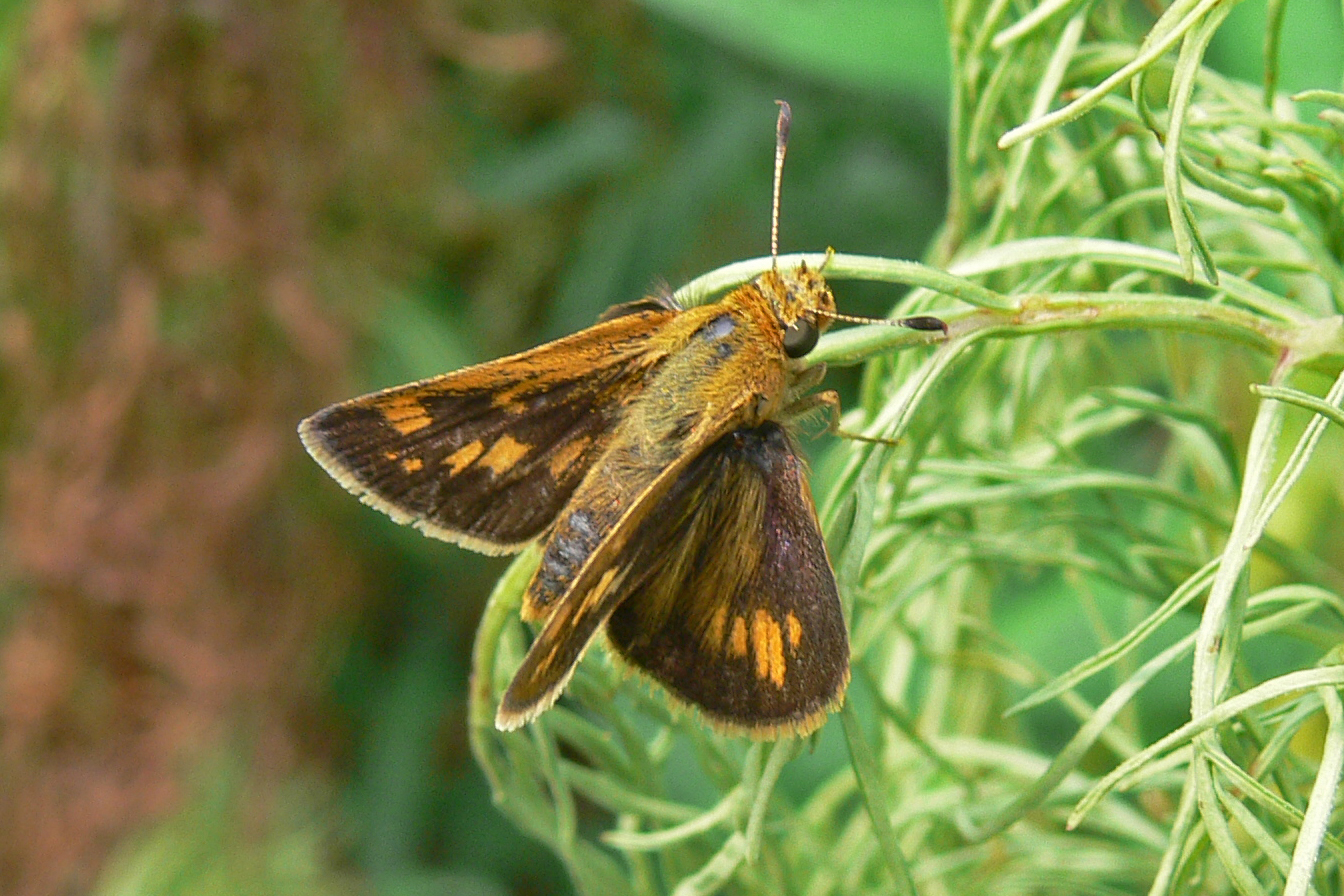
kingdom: Animalia
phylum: Arthropoda
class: Insecta
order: Lepidoptera
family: Hesperiidae
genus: Polites
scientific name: Polites coras
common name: Peck's skipper
